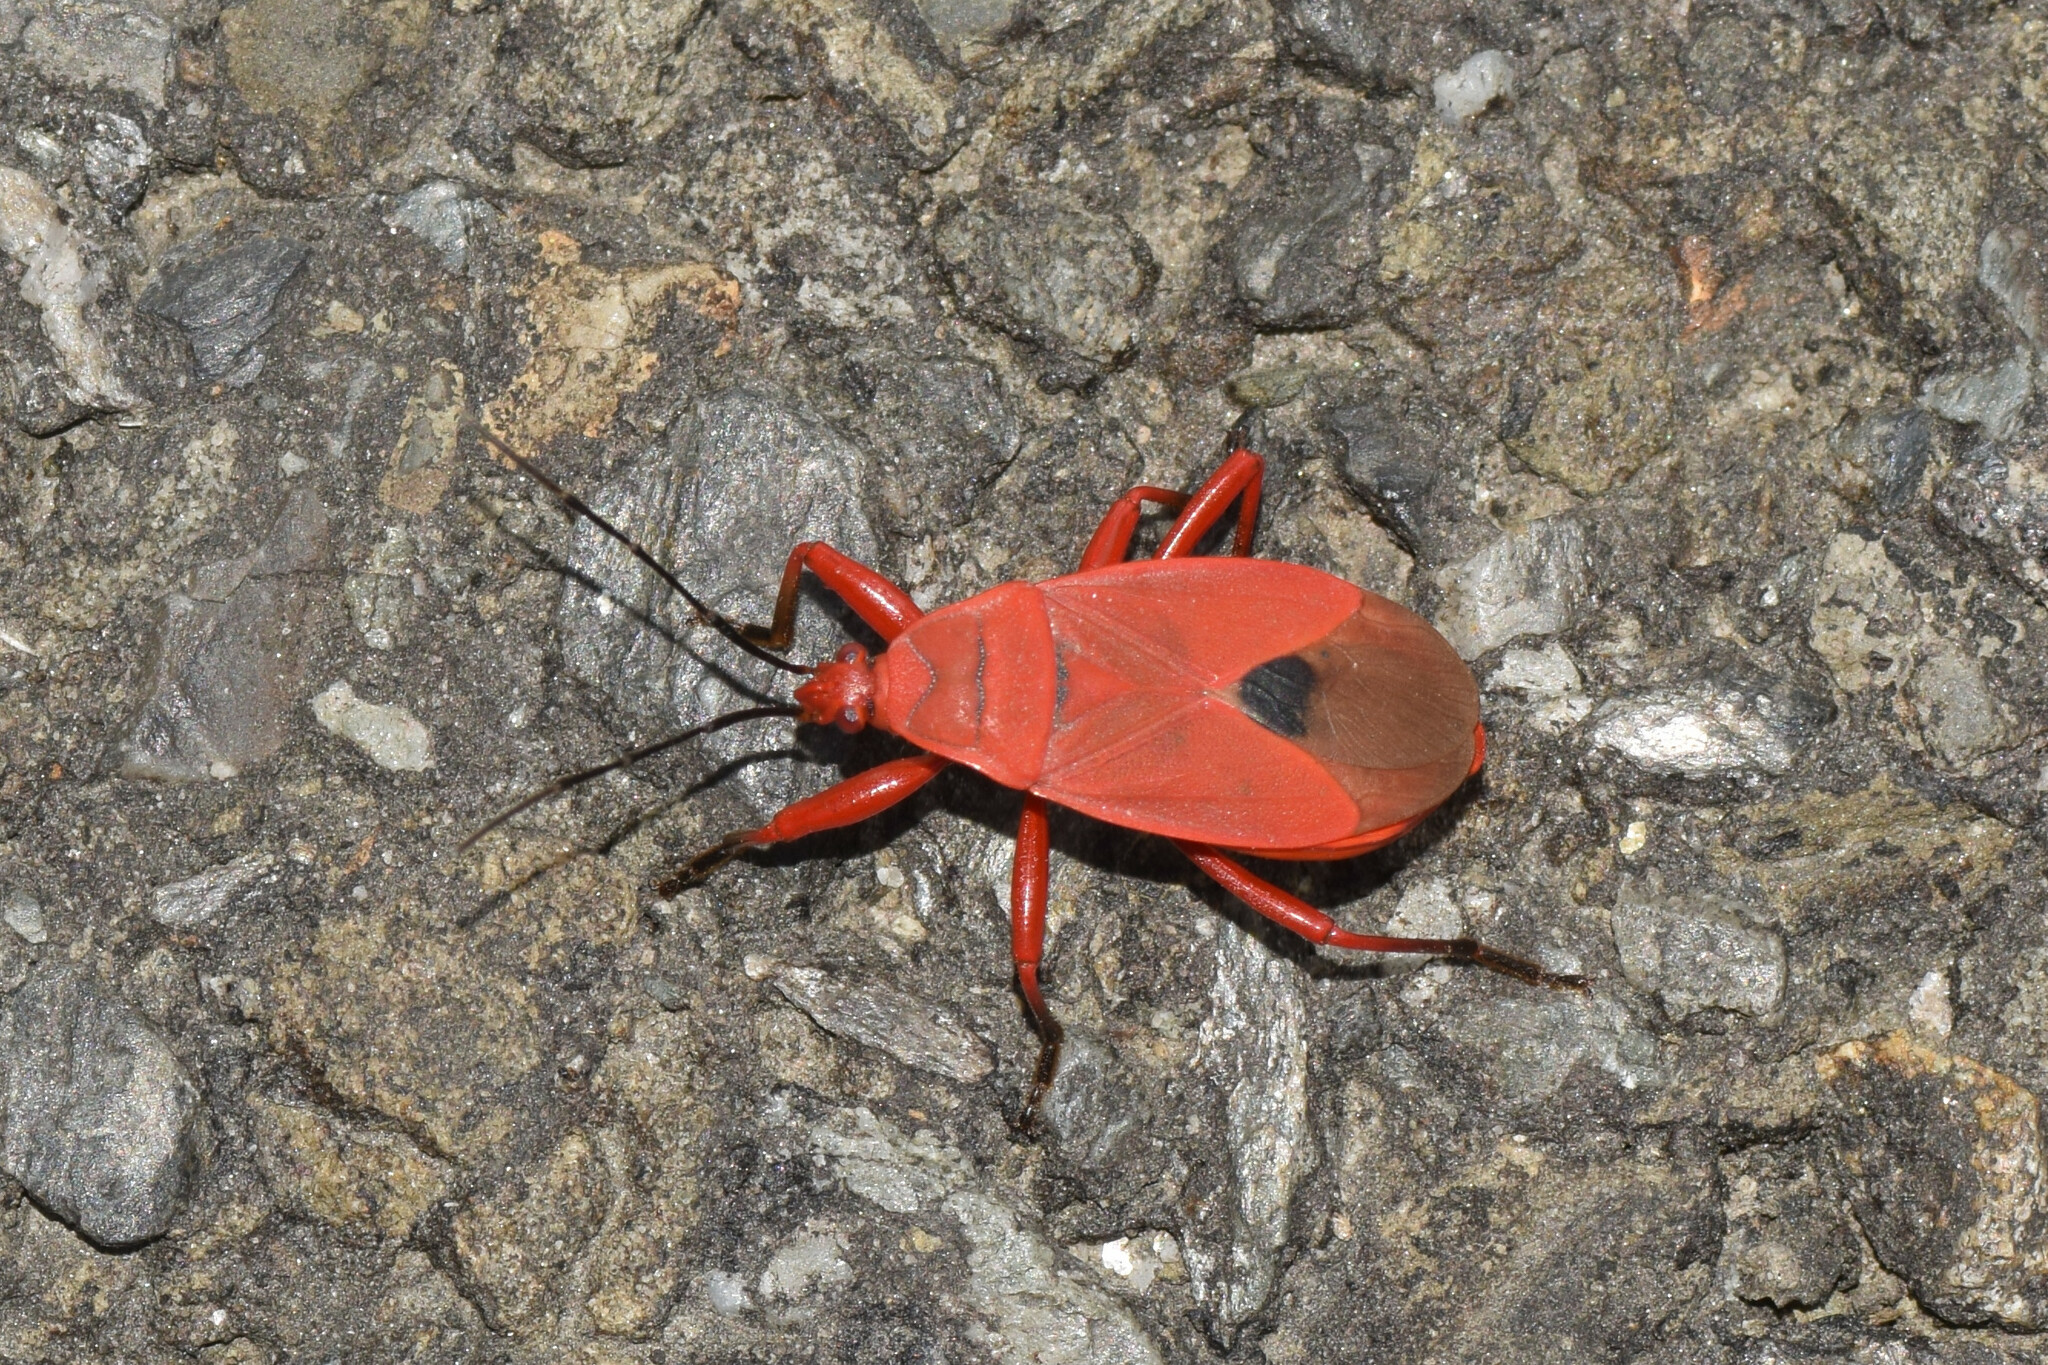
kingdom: Animalia
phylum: Arthropoda
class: Insecta
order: Hemiptera
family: Pyrrhocoridae
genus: Antilochus
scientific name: Antilochus
